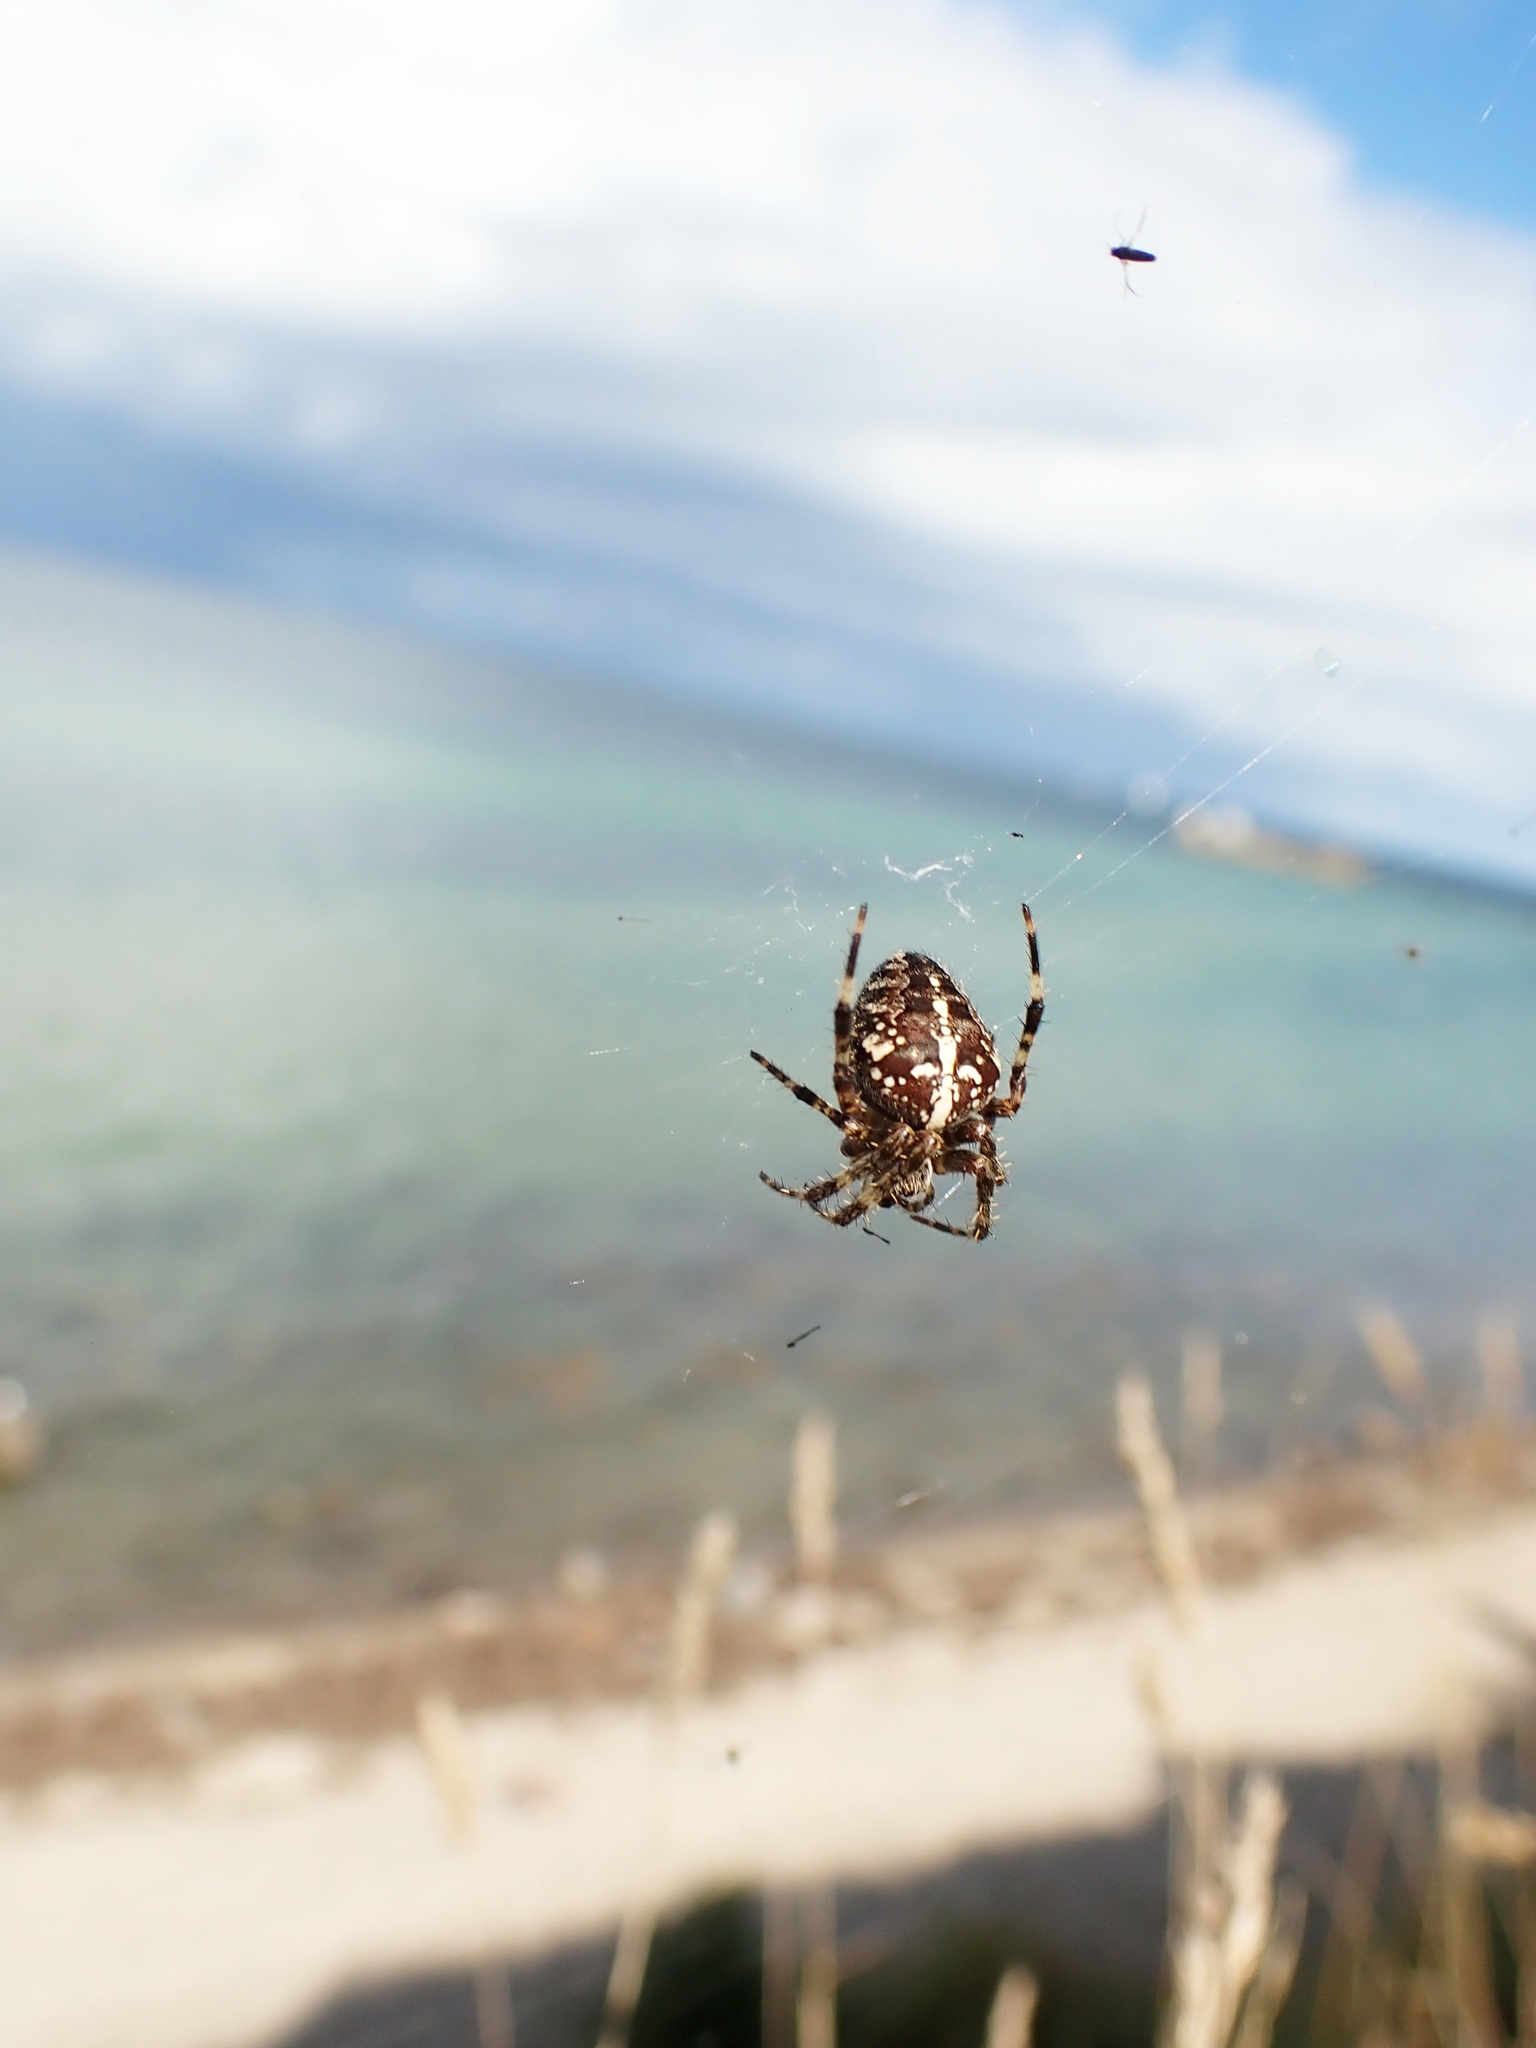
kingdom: Animalia
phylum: Arthropoda
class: Arachnida
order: Araneae
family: Araneidae
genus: Araneus
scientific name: Araneus diadematus
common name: Cross orbweaver
